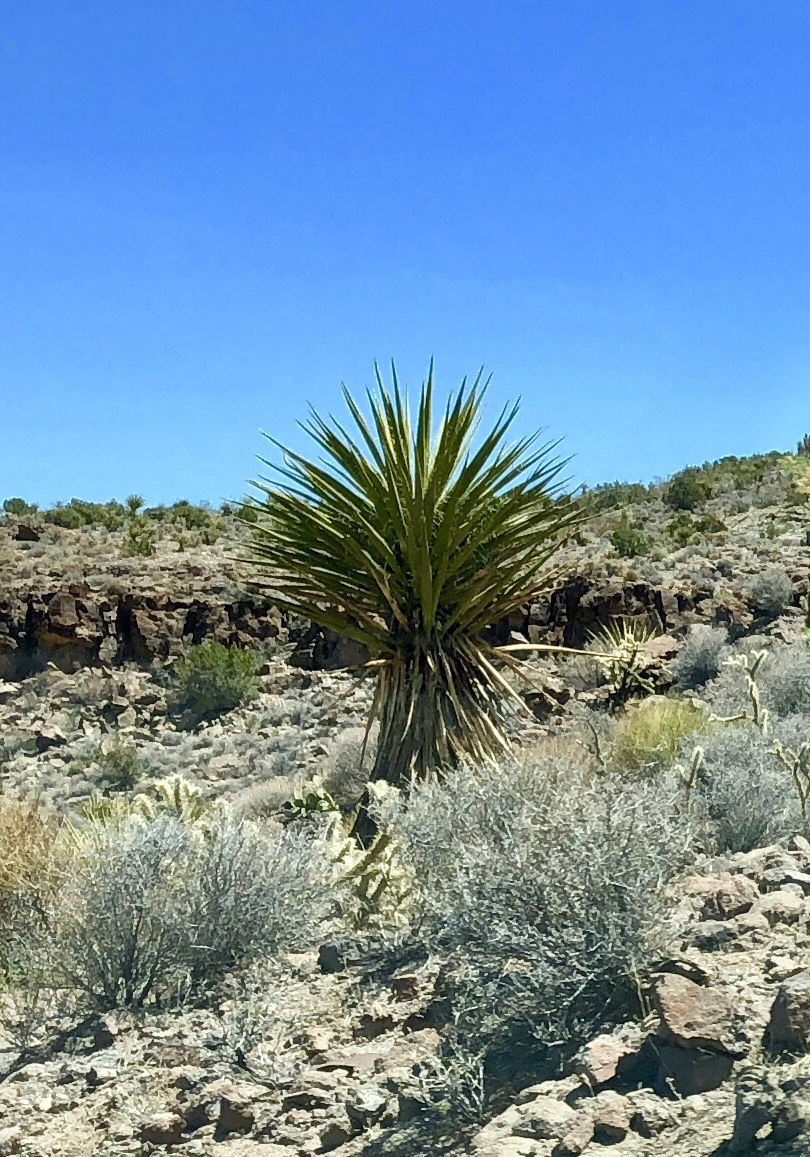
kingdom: Plantae
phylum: Tracheophyta
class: Liliopsida
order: Asparagales
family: Asparagaceae
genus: Yucca
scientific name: Yucca schidigera
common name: Mojave yucca
